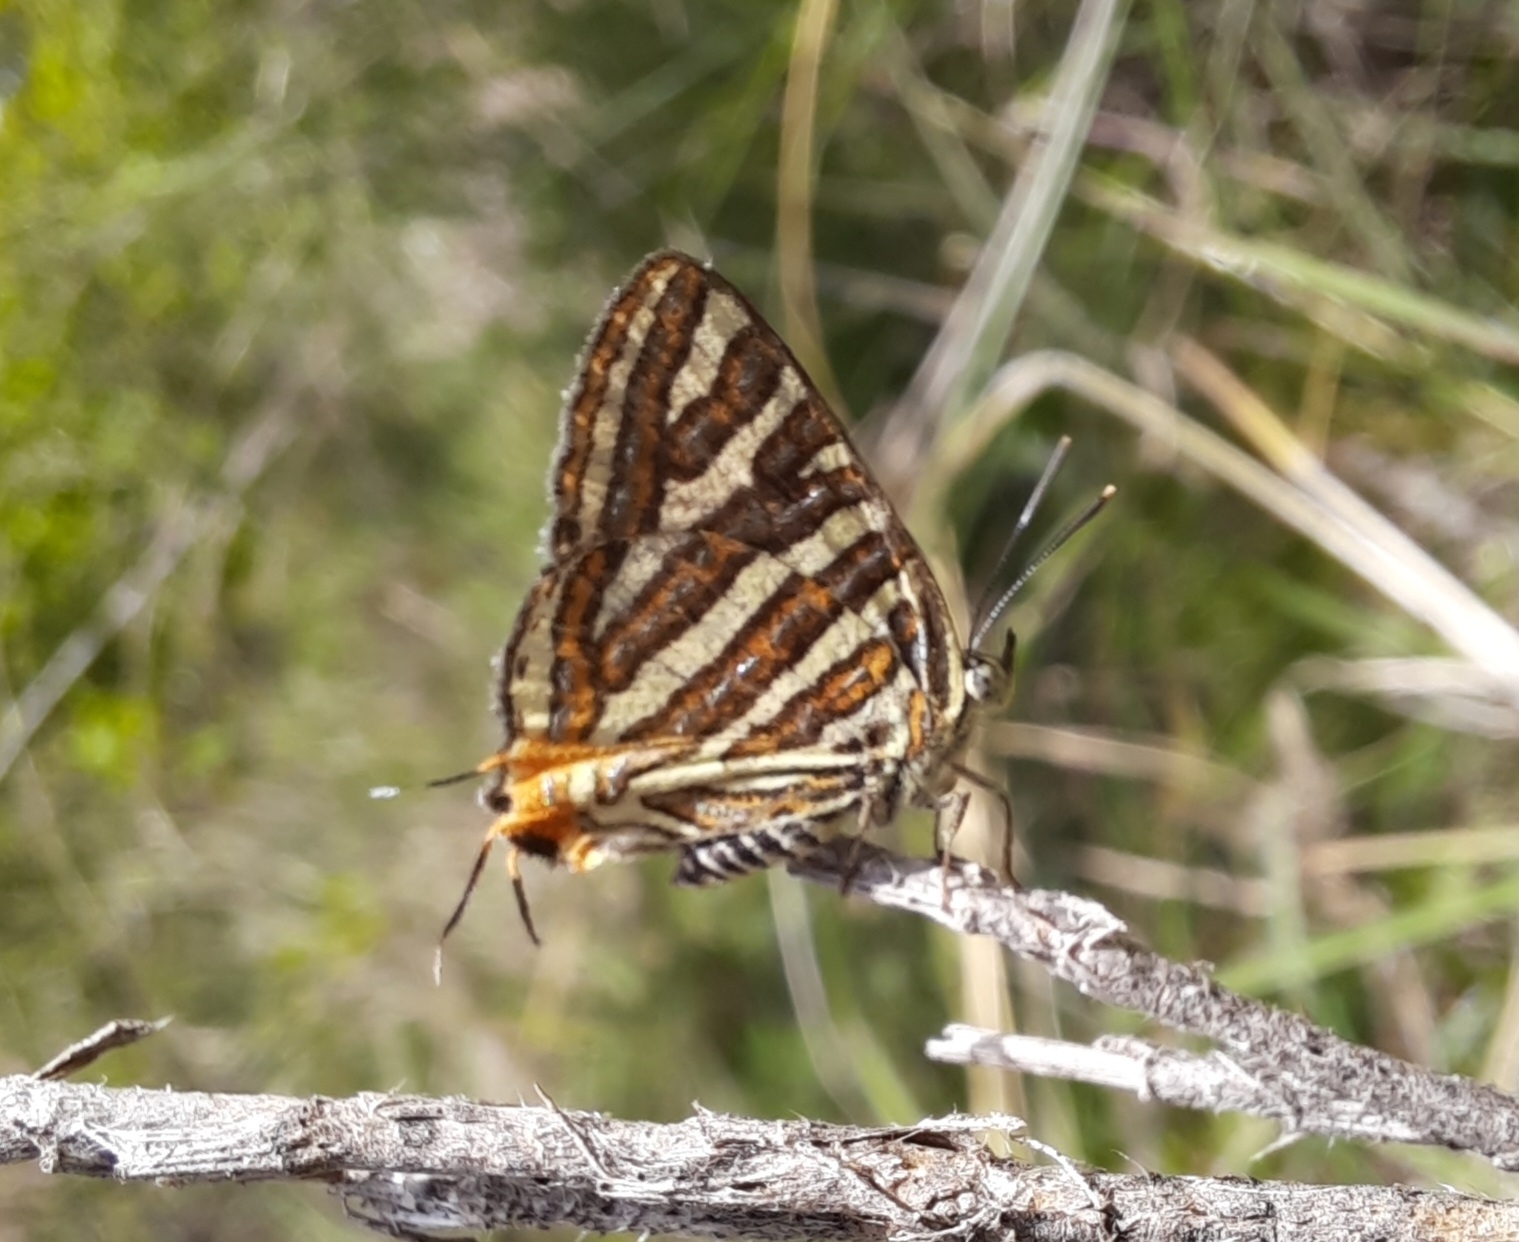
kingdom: Animalia
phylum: Arthropoda
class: Insecta
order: Lepidoptera
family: Lycaenidae
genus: Cigaritis
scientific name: Cigaritis vulcanus
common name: Common silverline
